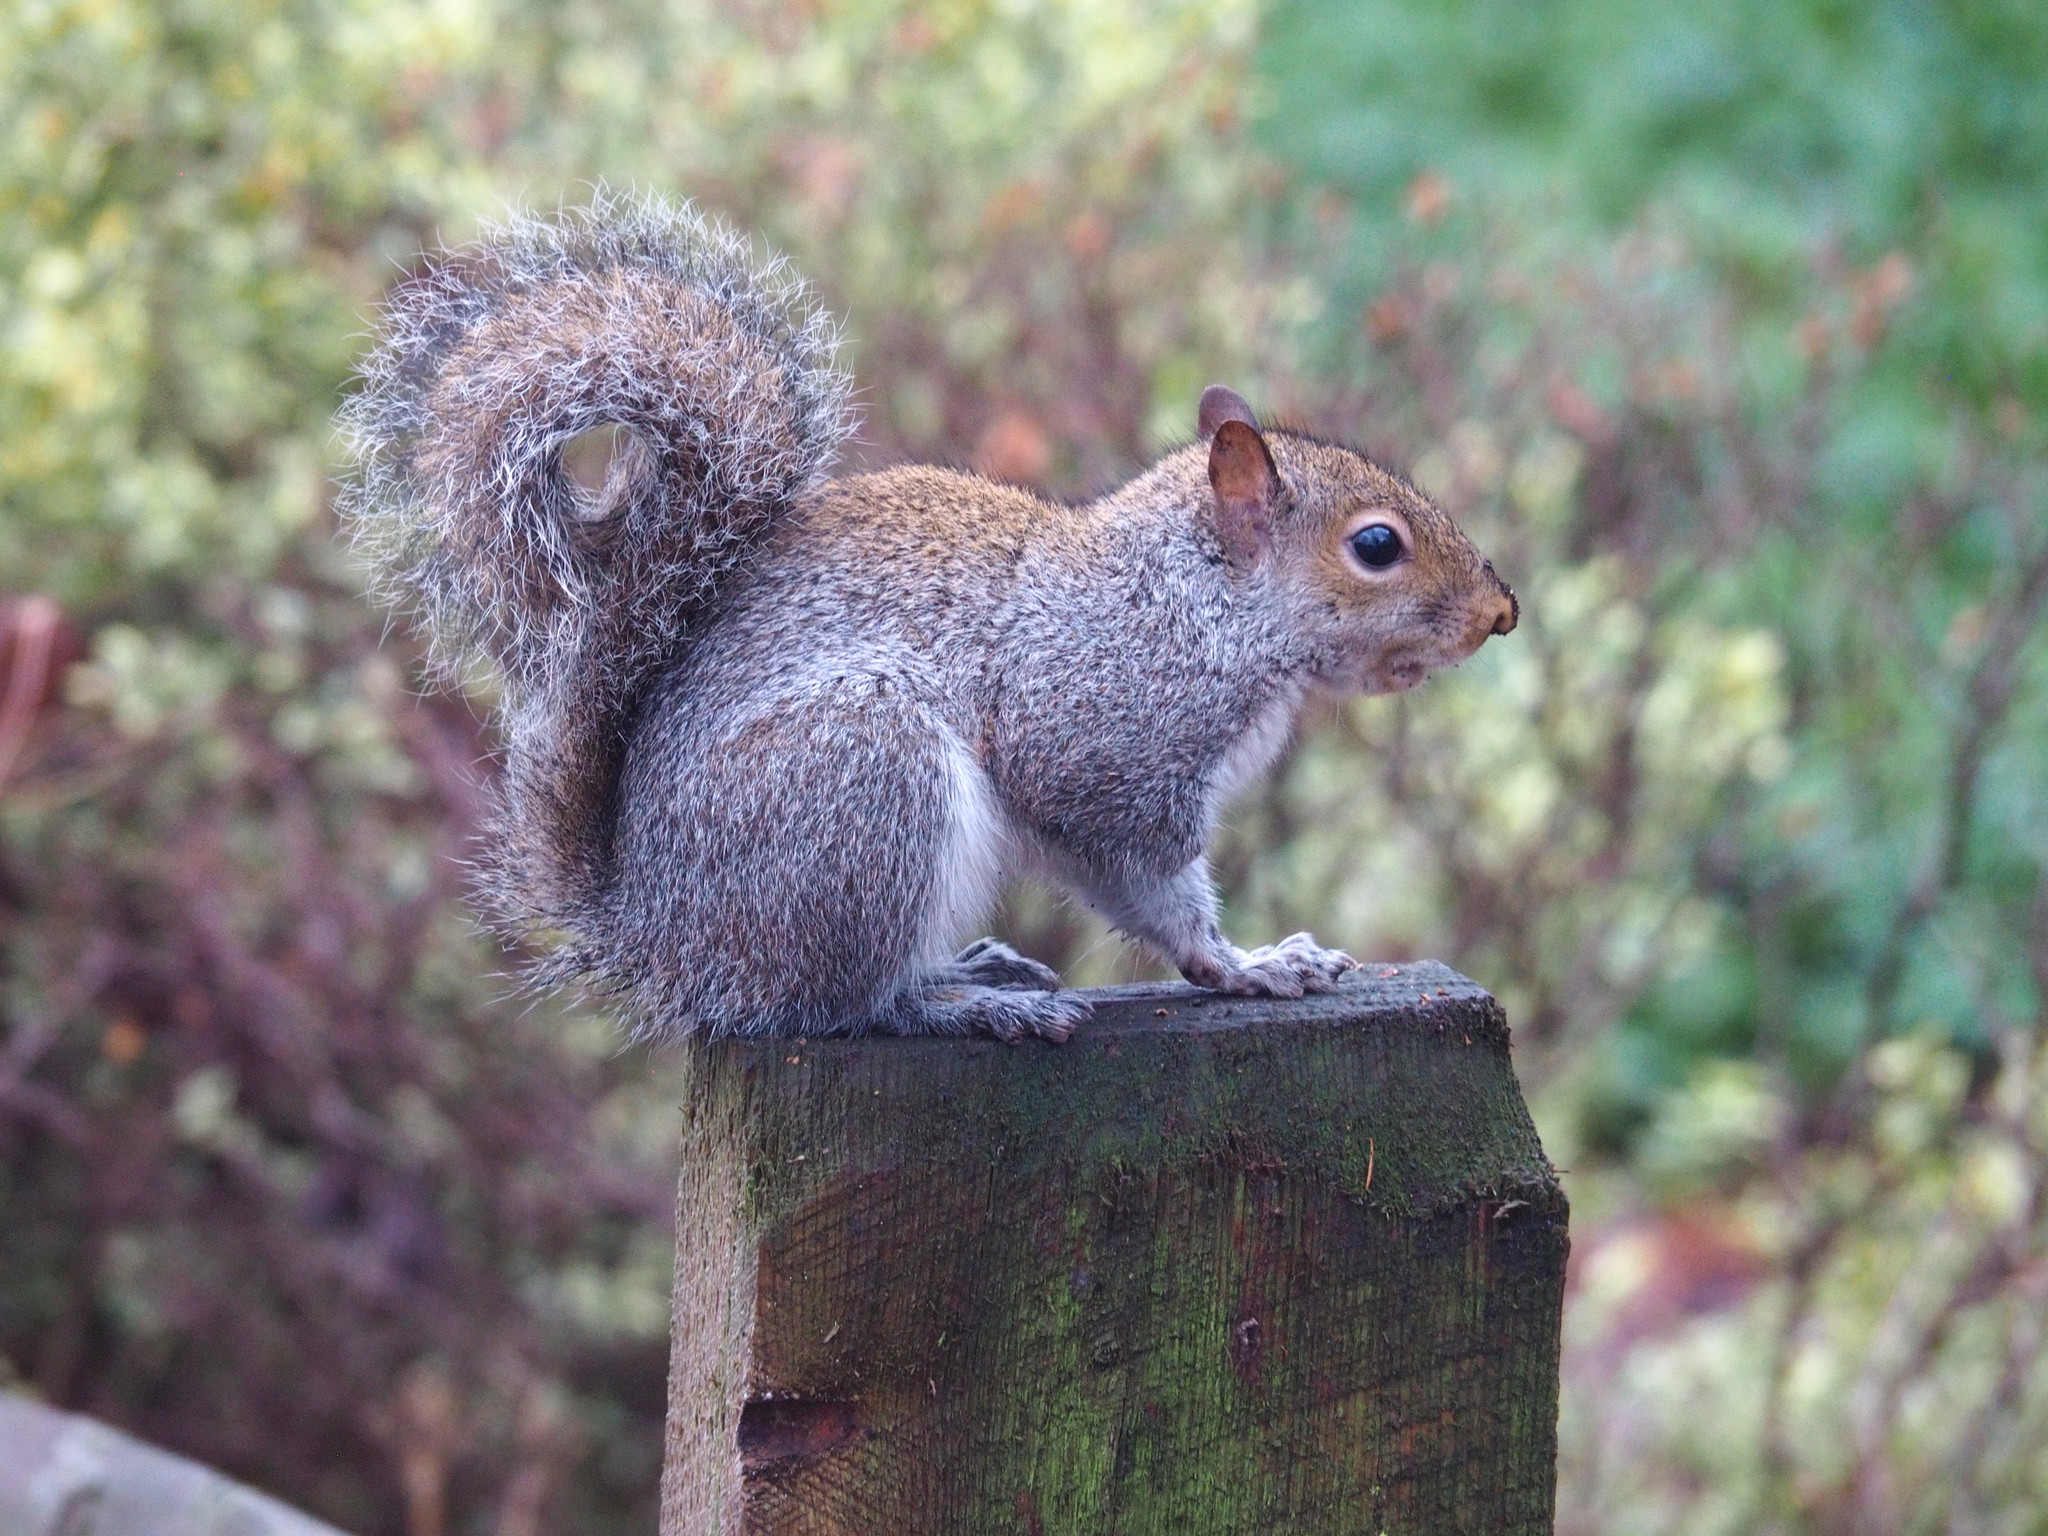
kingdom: Animalia
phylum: Chordata
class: Mammalia
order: Rodentia
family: Sciuridae
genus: Sciurus
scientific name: Sciurus carolinensis
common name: Eastern gray squirrel
